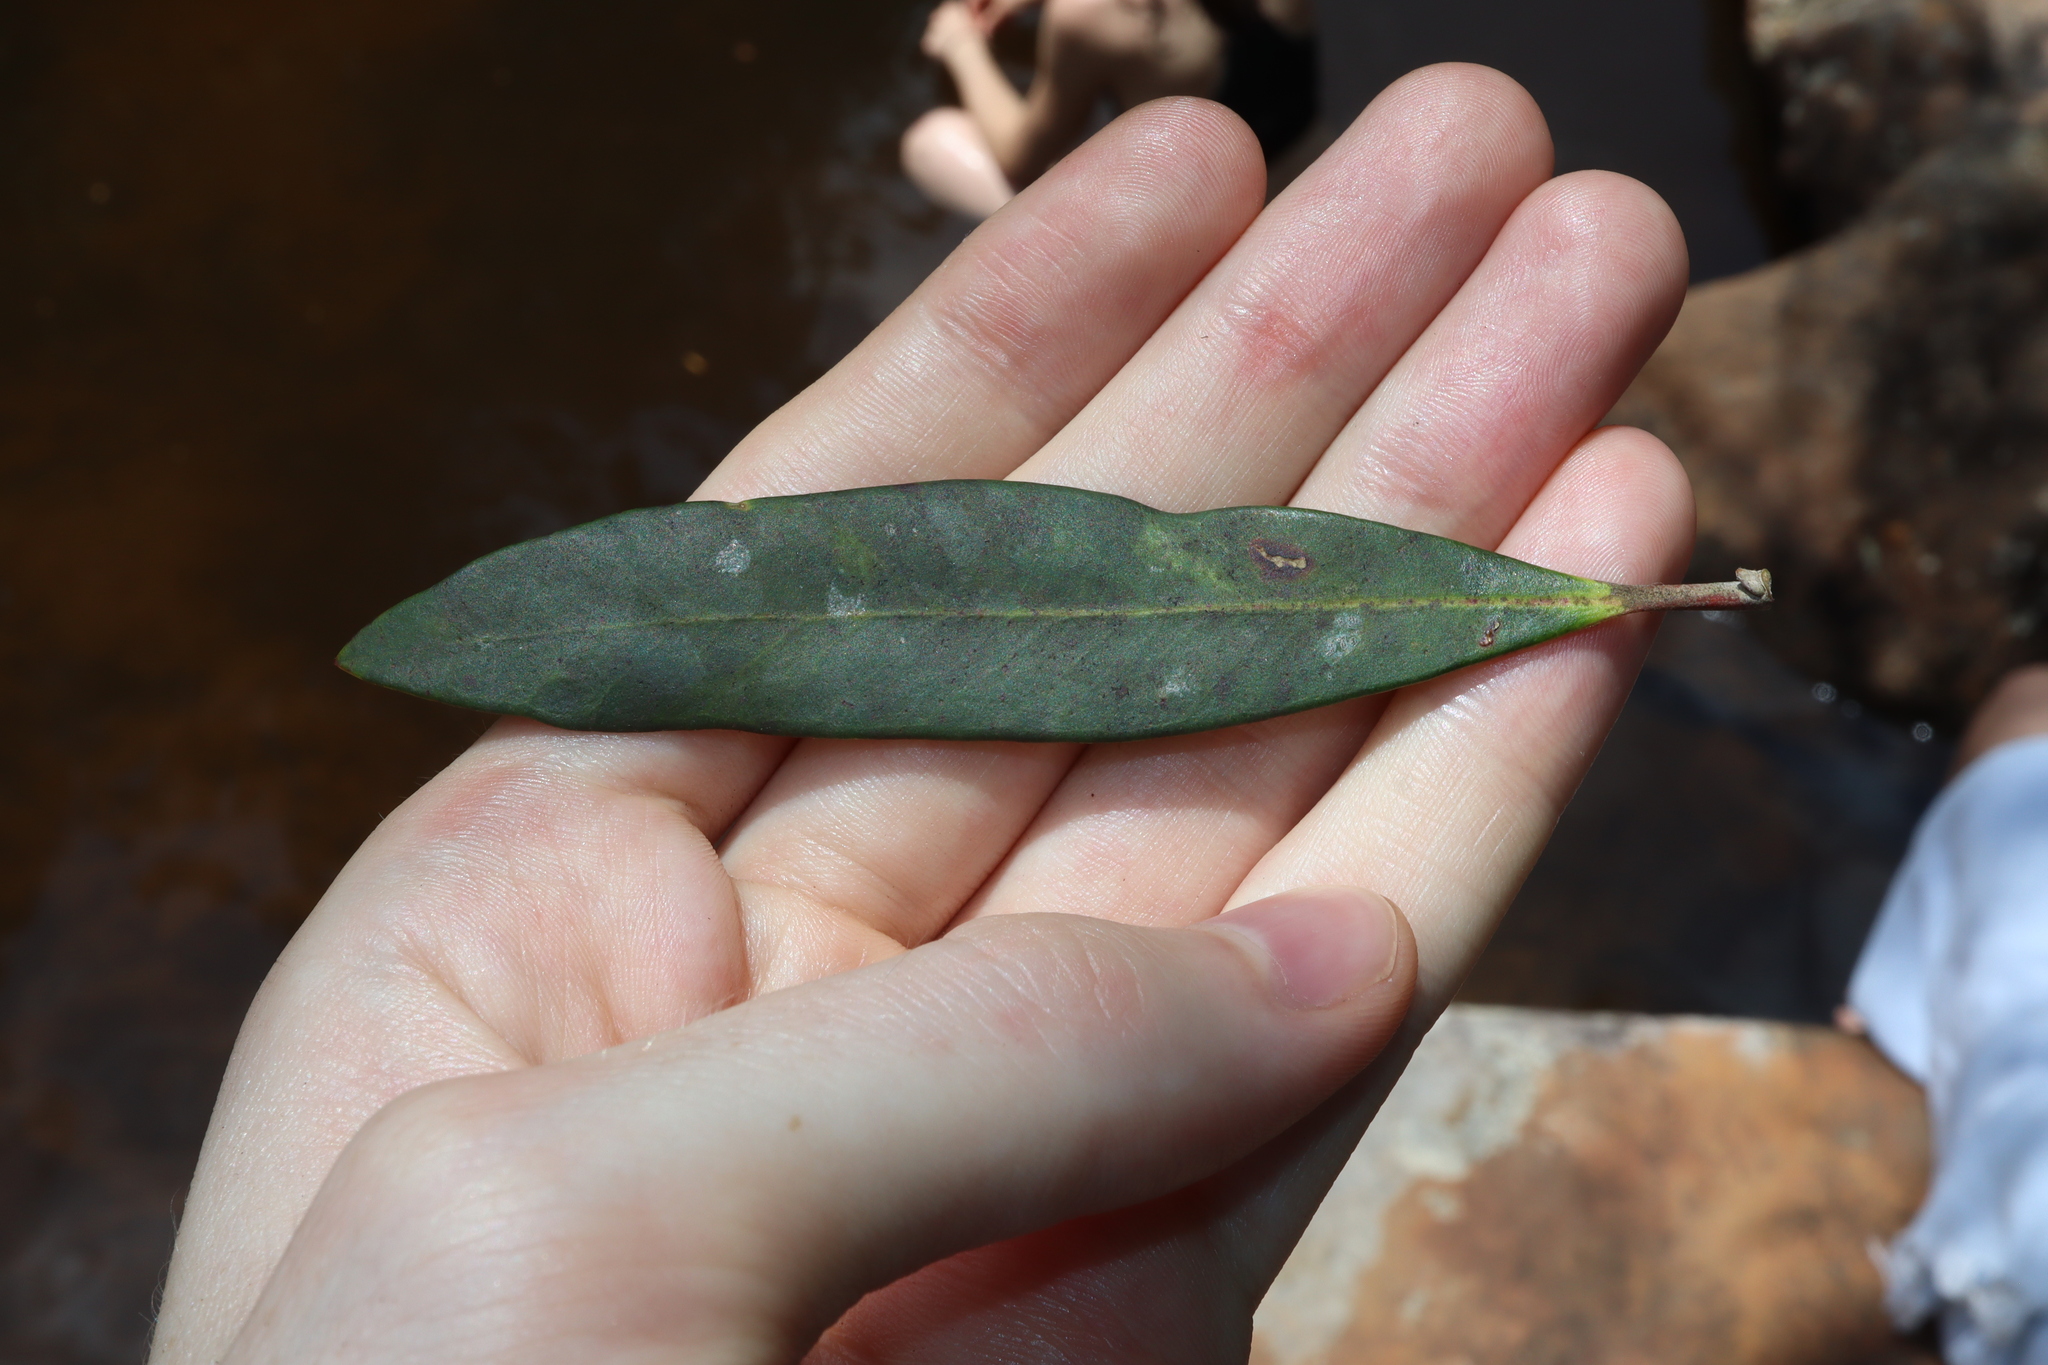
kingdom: Plantae
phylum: Tracheophyta
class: Magnoliopsida
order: Myrtales
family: Myrtaceae
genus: Tristaniopsis
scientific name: Tristaniopsis laurina
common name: Water-gum
